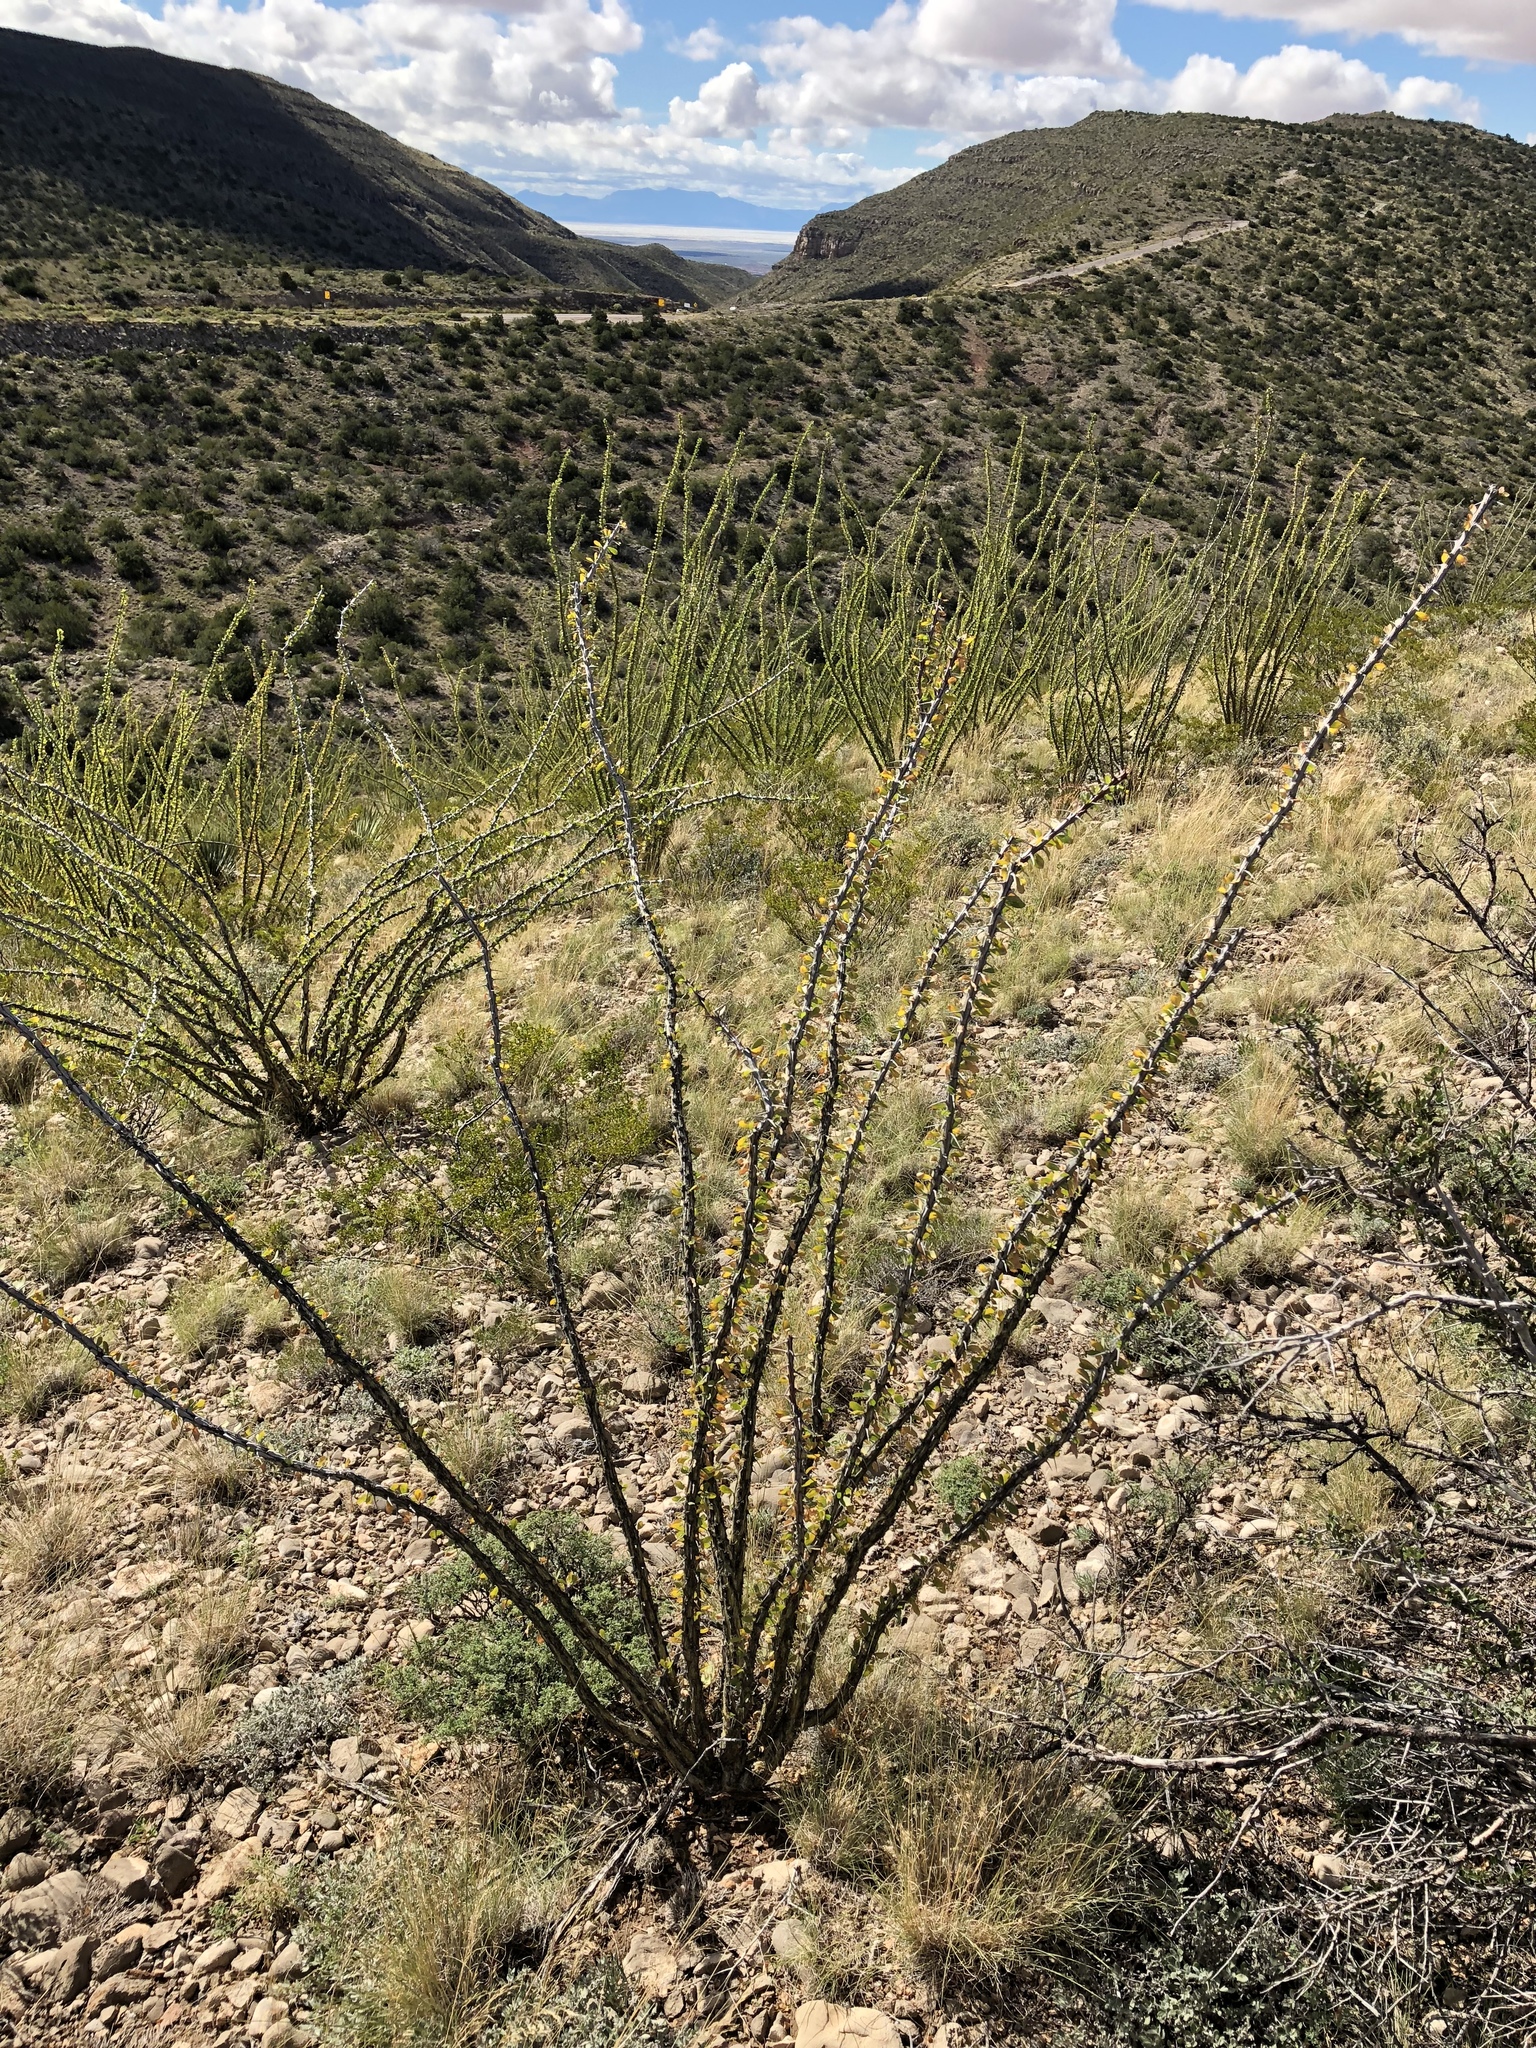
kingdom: Plantae
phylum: Tracheophyta
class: Magnoliopsida
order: Ericales
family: Fouquieriaceae
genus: Fouquieria
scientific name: Fouquieria splendens
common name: Vine-cactus
